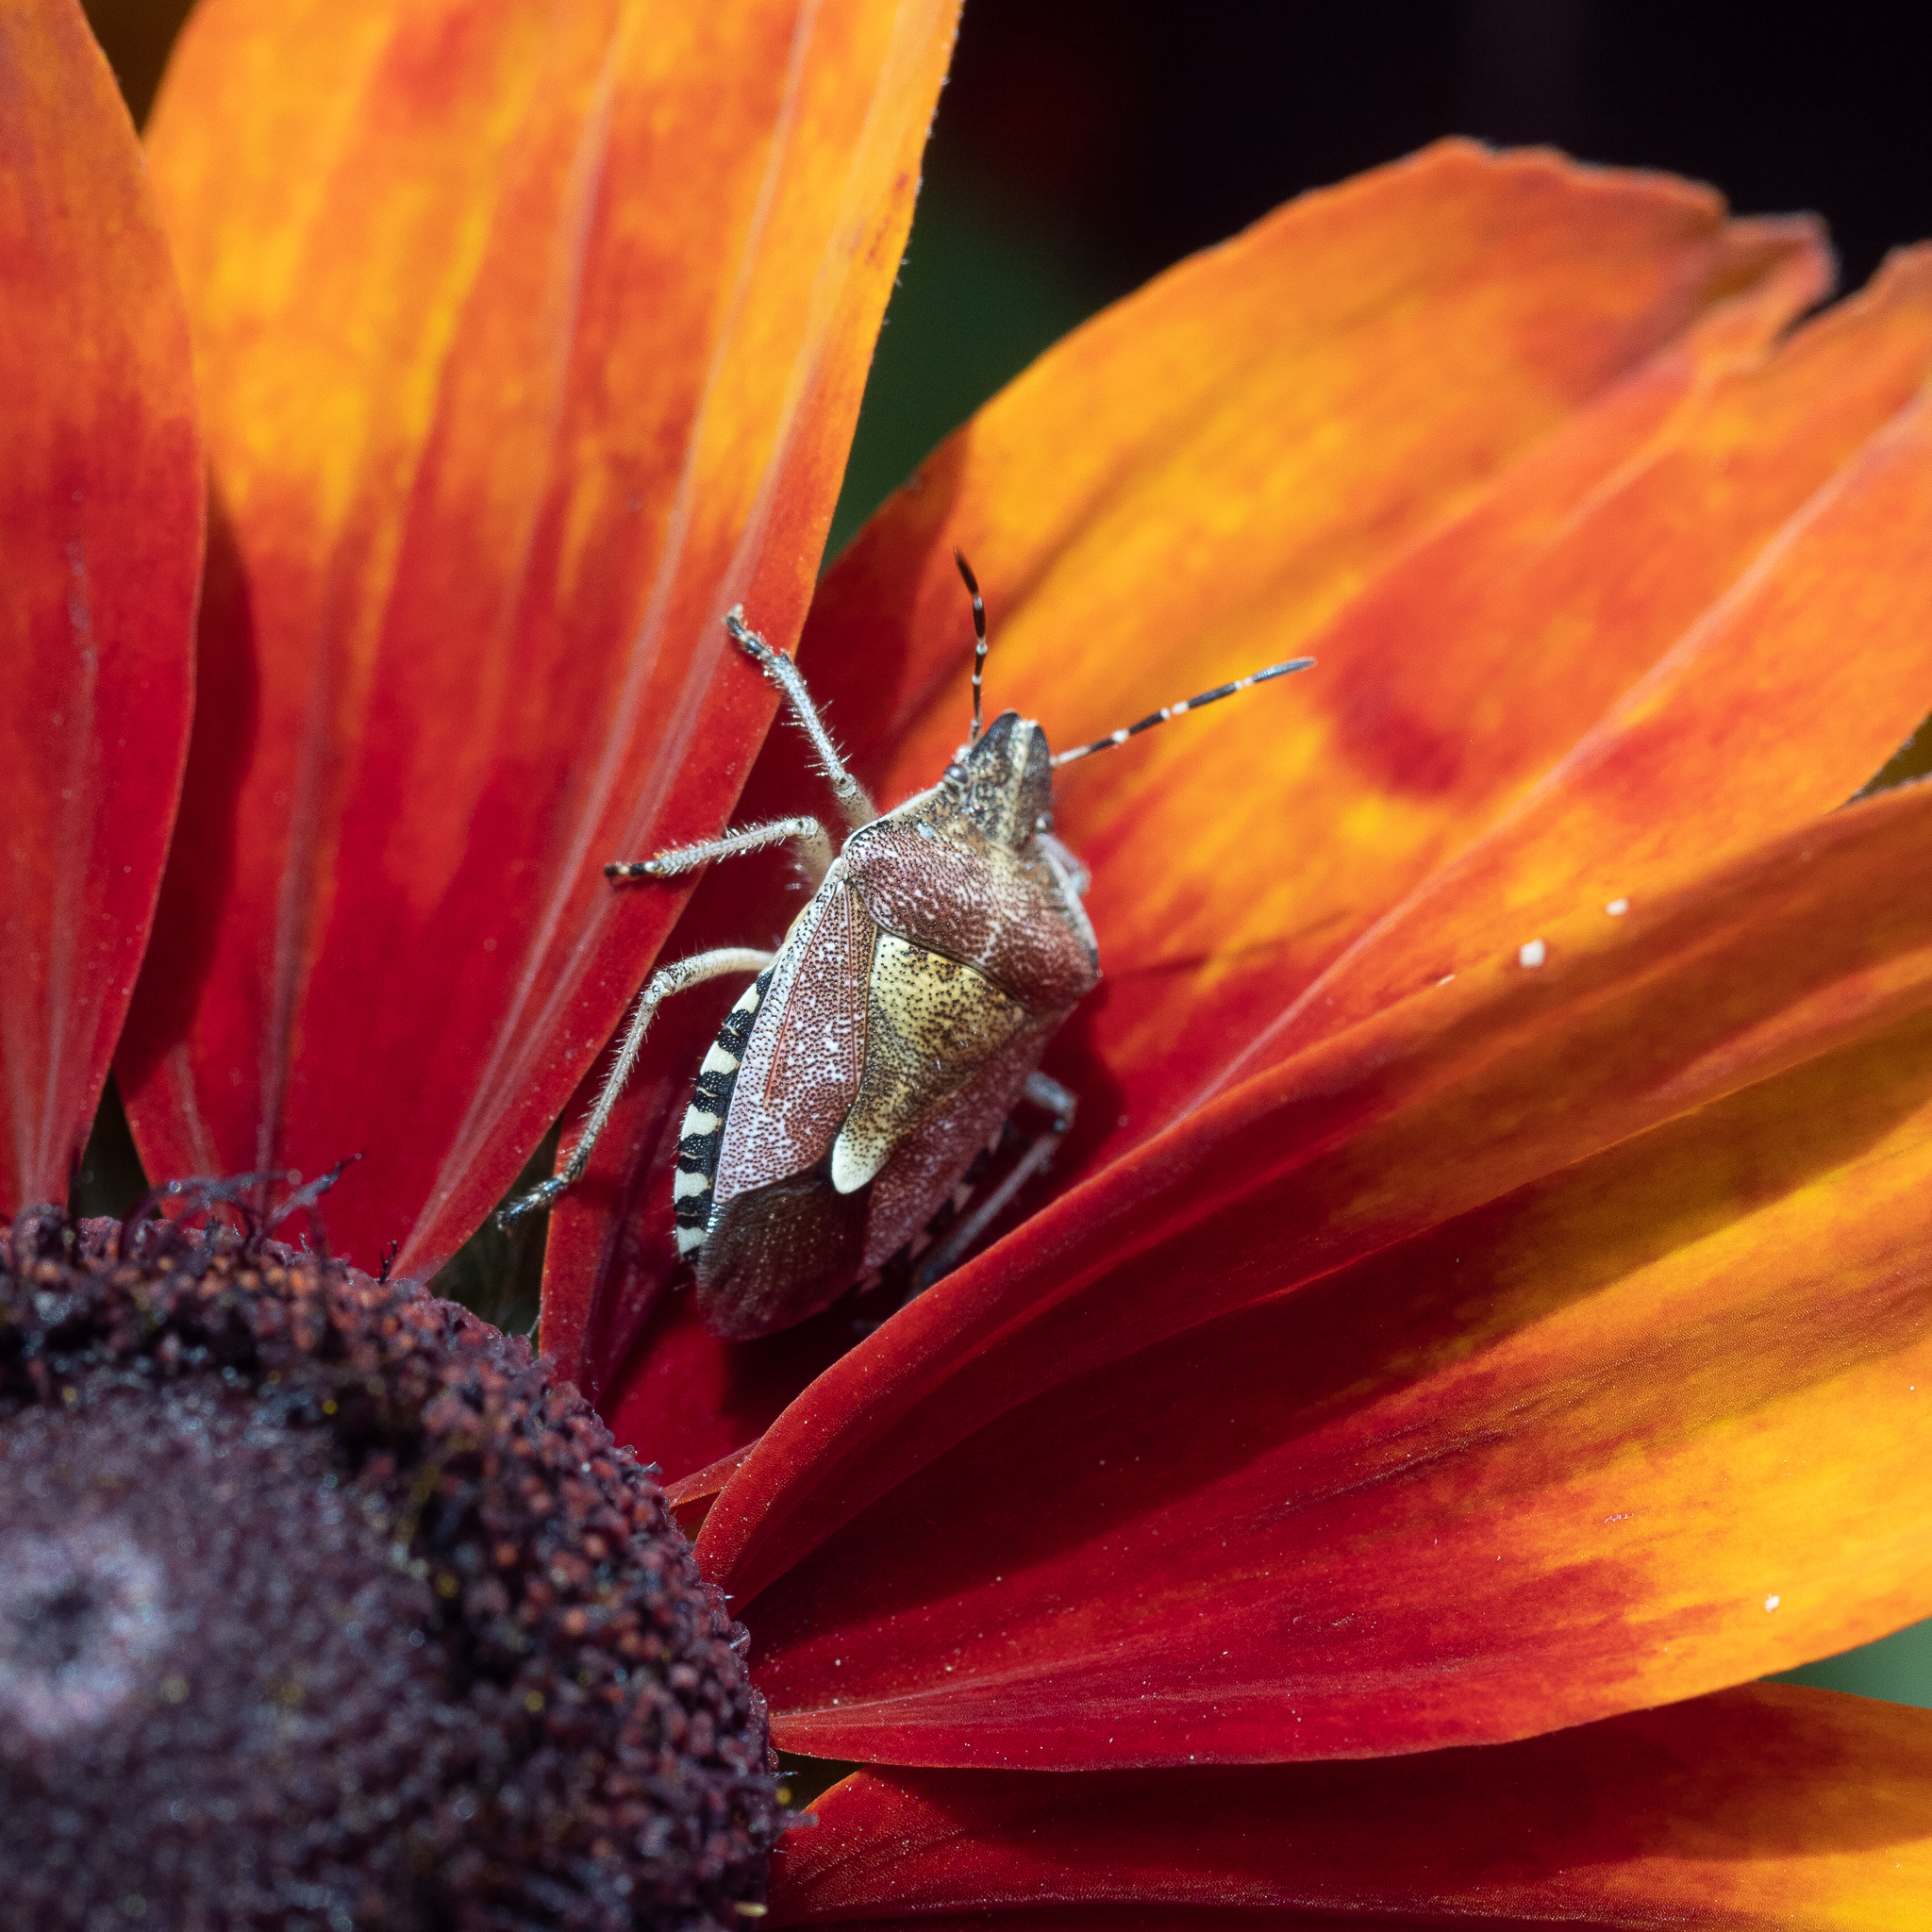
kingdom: Animalia
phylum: Arthropoda
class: Insecta
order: Hemiptera
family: Pentatomidae
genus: Dolycoris
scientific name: Dolycoris baccarum
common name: Sloe bug
